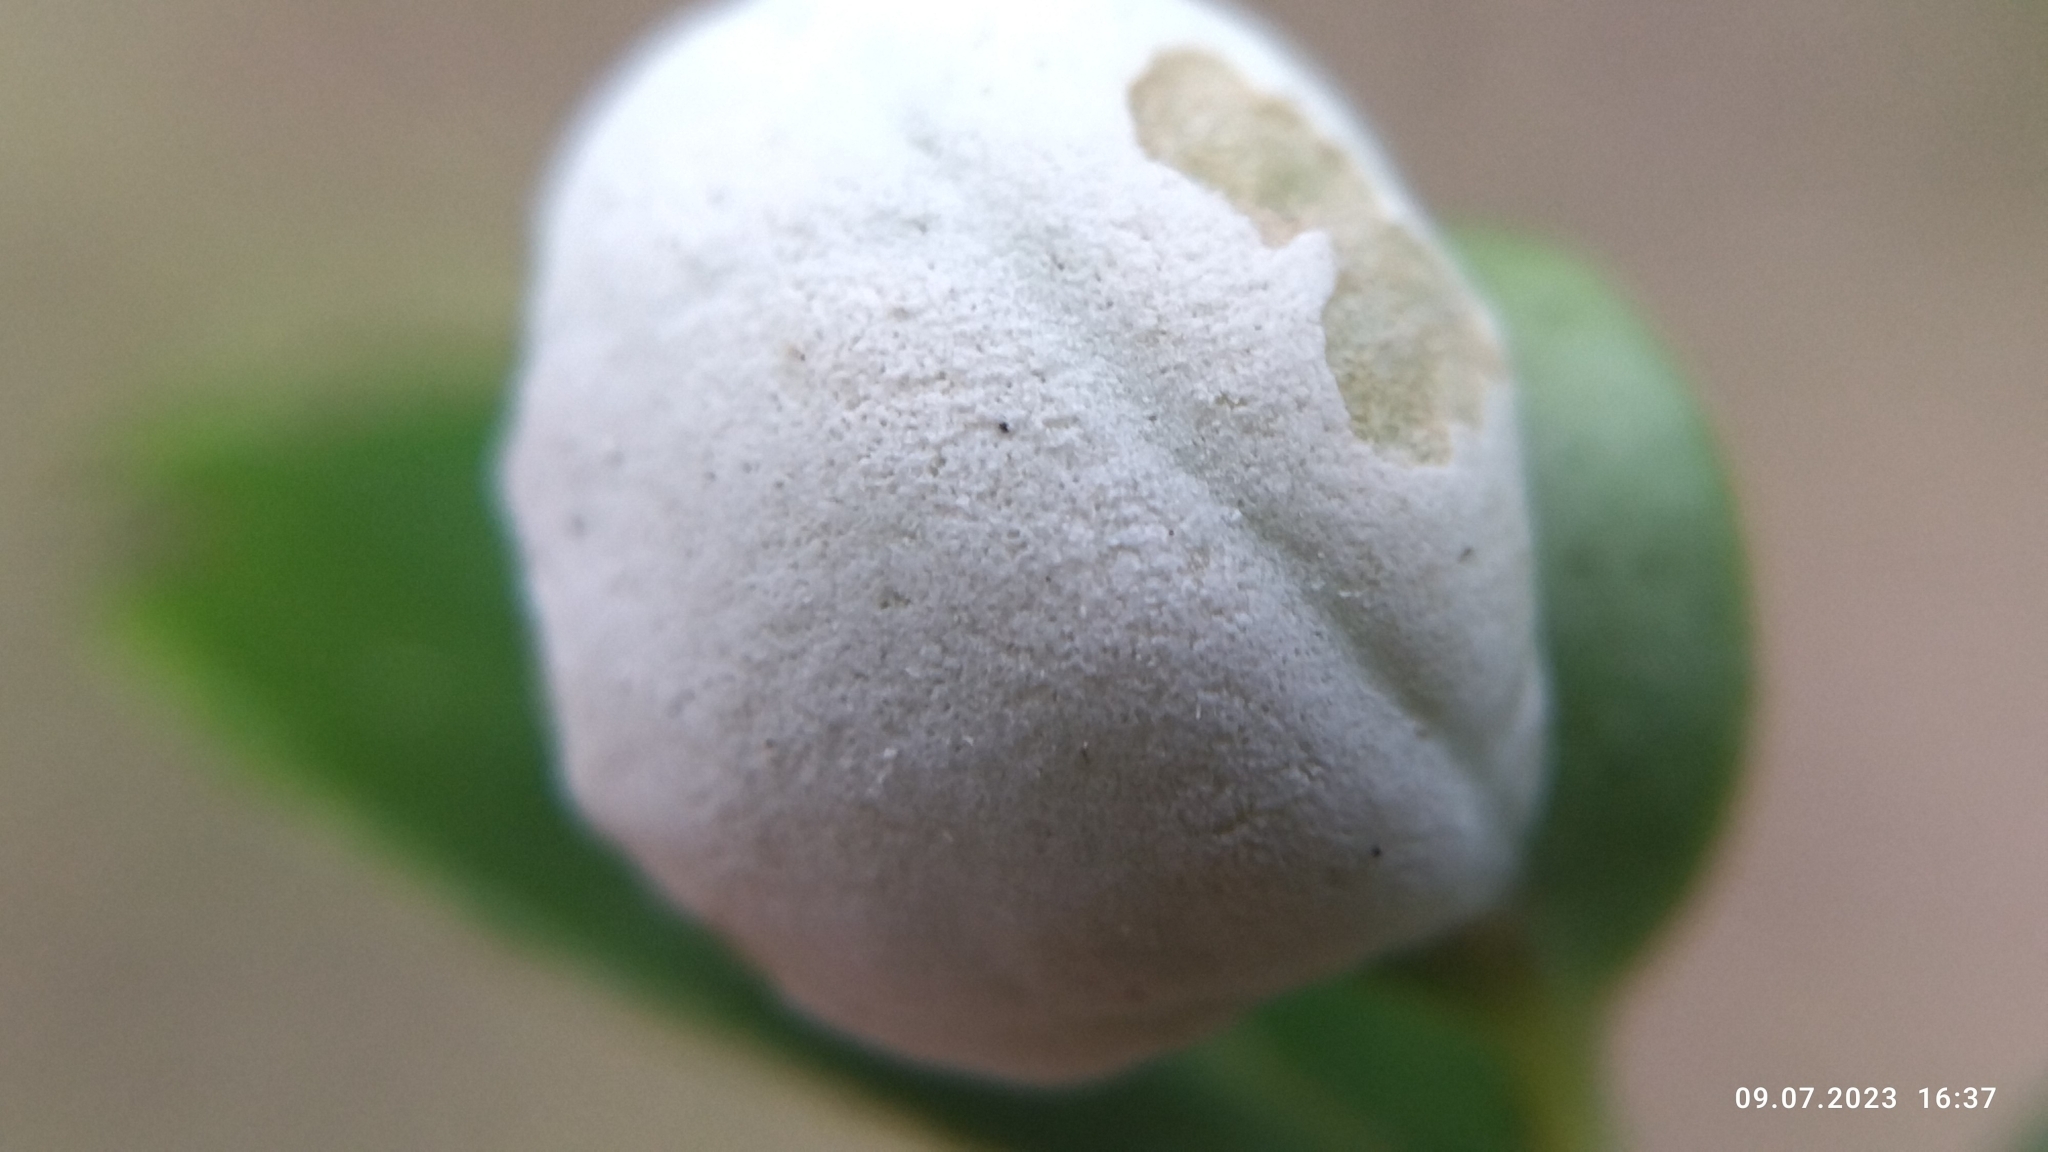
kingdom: Fungi
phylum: Basidiomycota
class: Exobasidiomycetes
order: Exobasidiales
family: Exobasidiaceae
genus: Exobasidium
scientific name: Exobasidium vaccinii
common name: Cowberry redleaf
